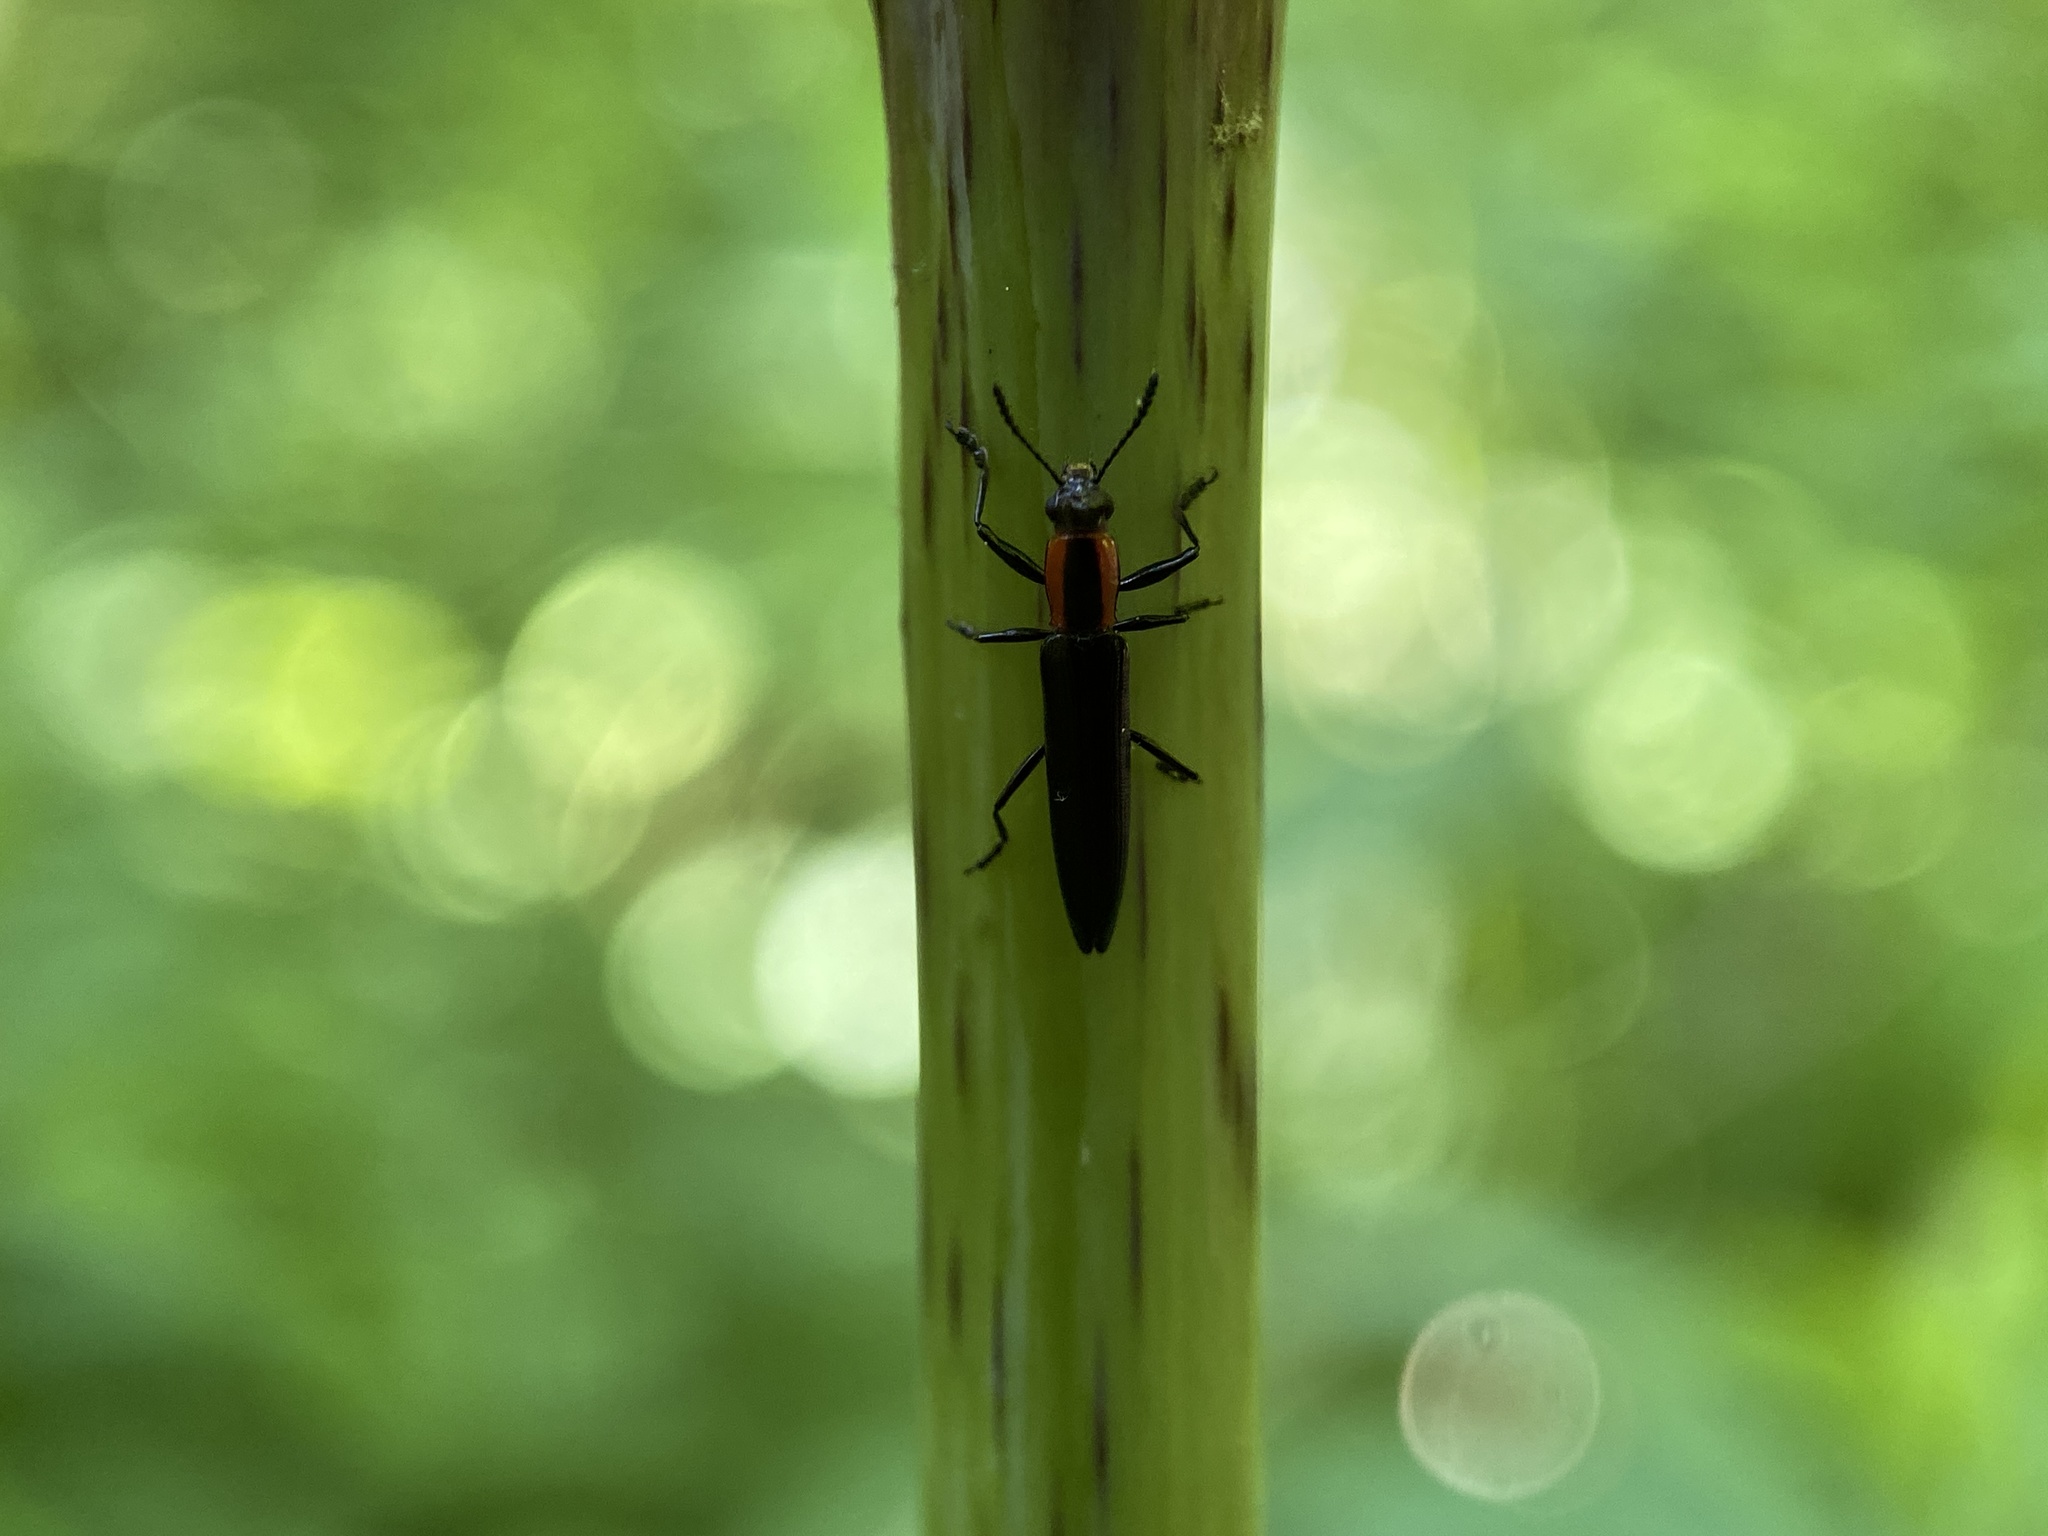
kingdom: Animalia
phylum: Arthropoda
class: Insecta
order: Coleoptera
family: Erotylidae
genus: Acropteroxys
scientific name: Acropteroxys gracilis
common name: Slender lizard beetle
